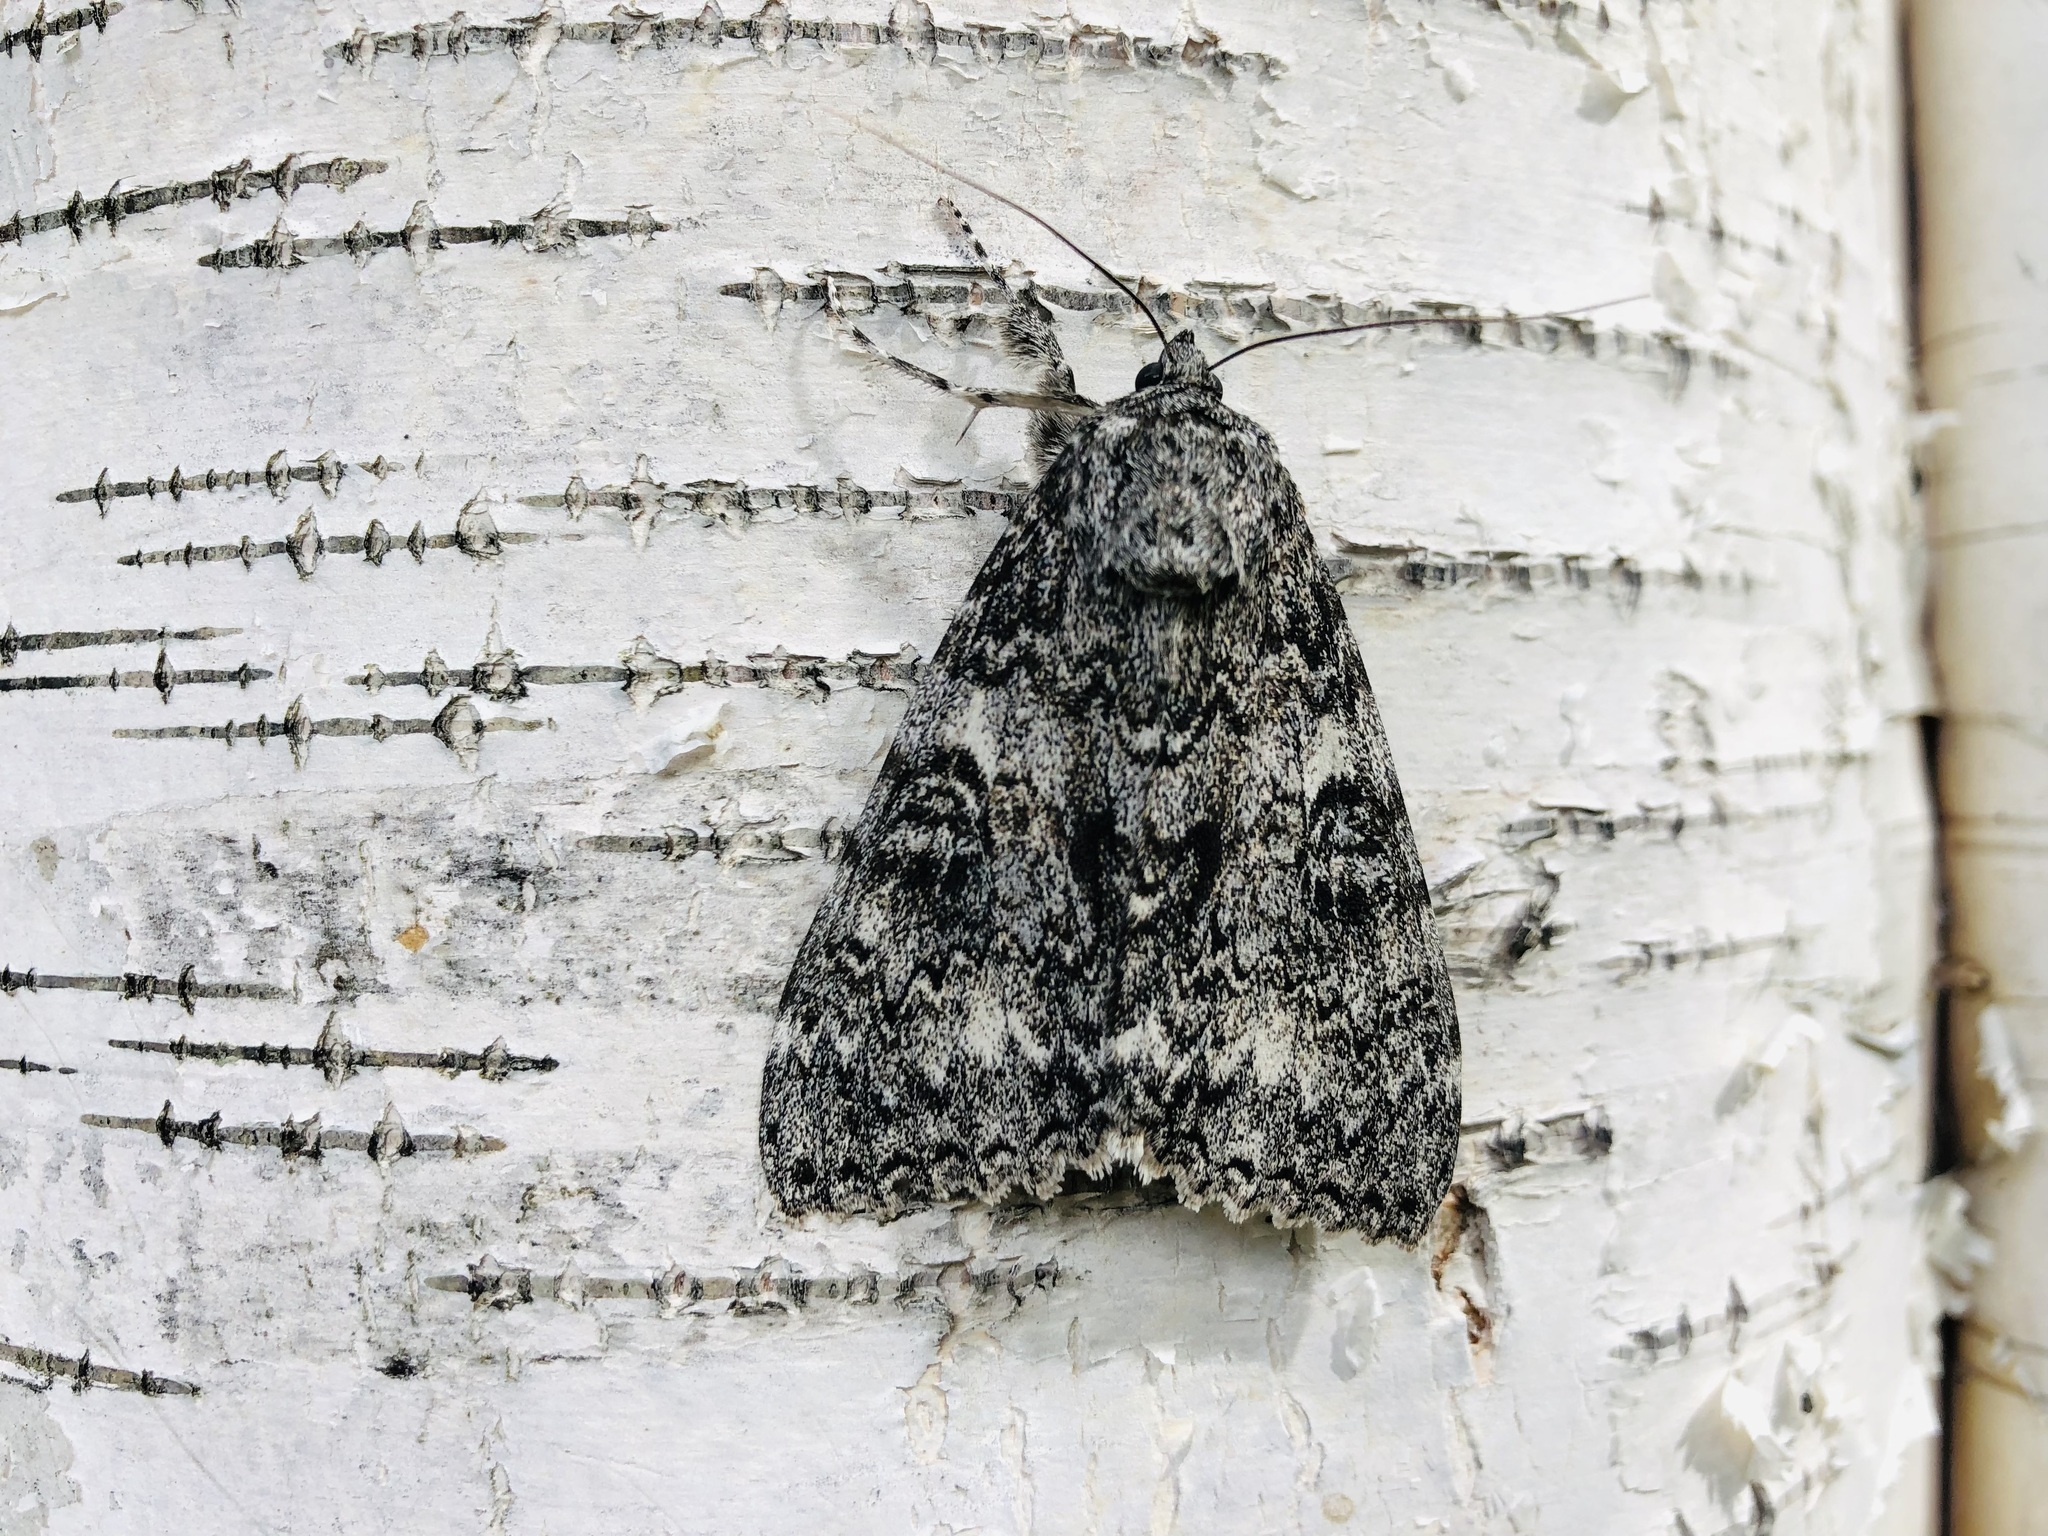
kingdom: Animalia
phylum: Arthropoda
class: Insecta
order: Lepidoptera
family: Erebidae
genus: Catocala
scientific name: Catocala unijuga
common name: Once-married underwing
